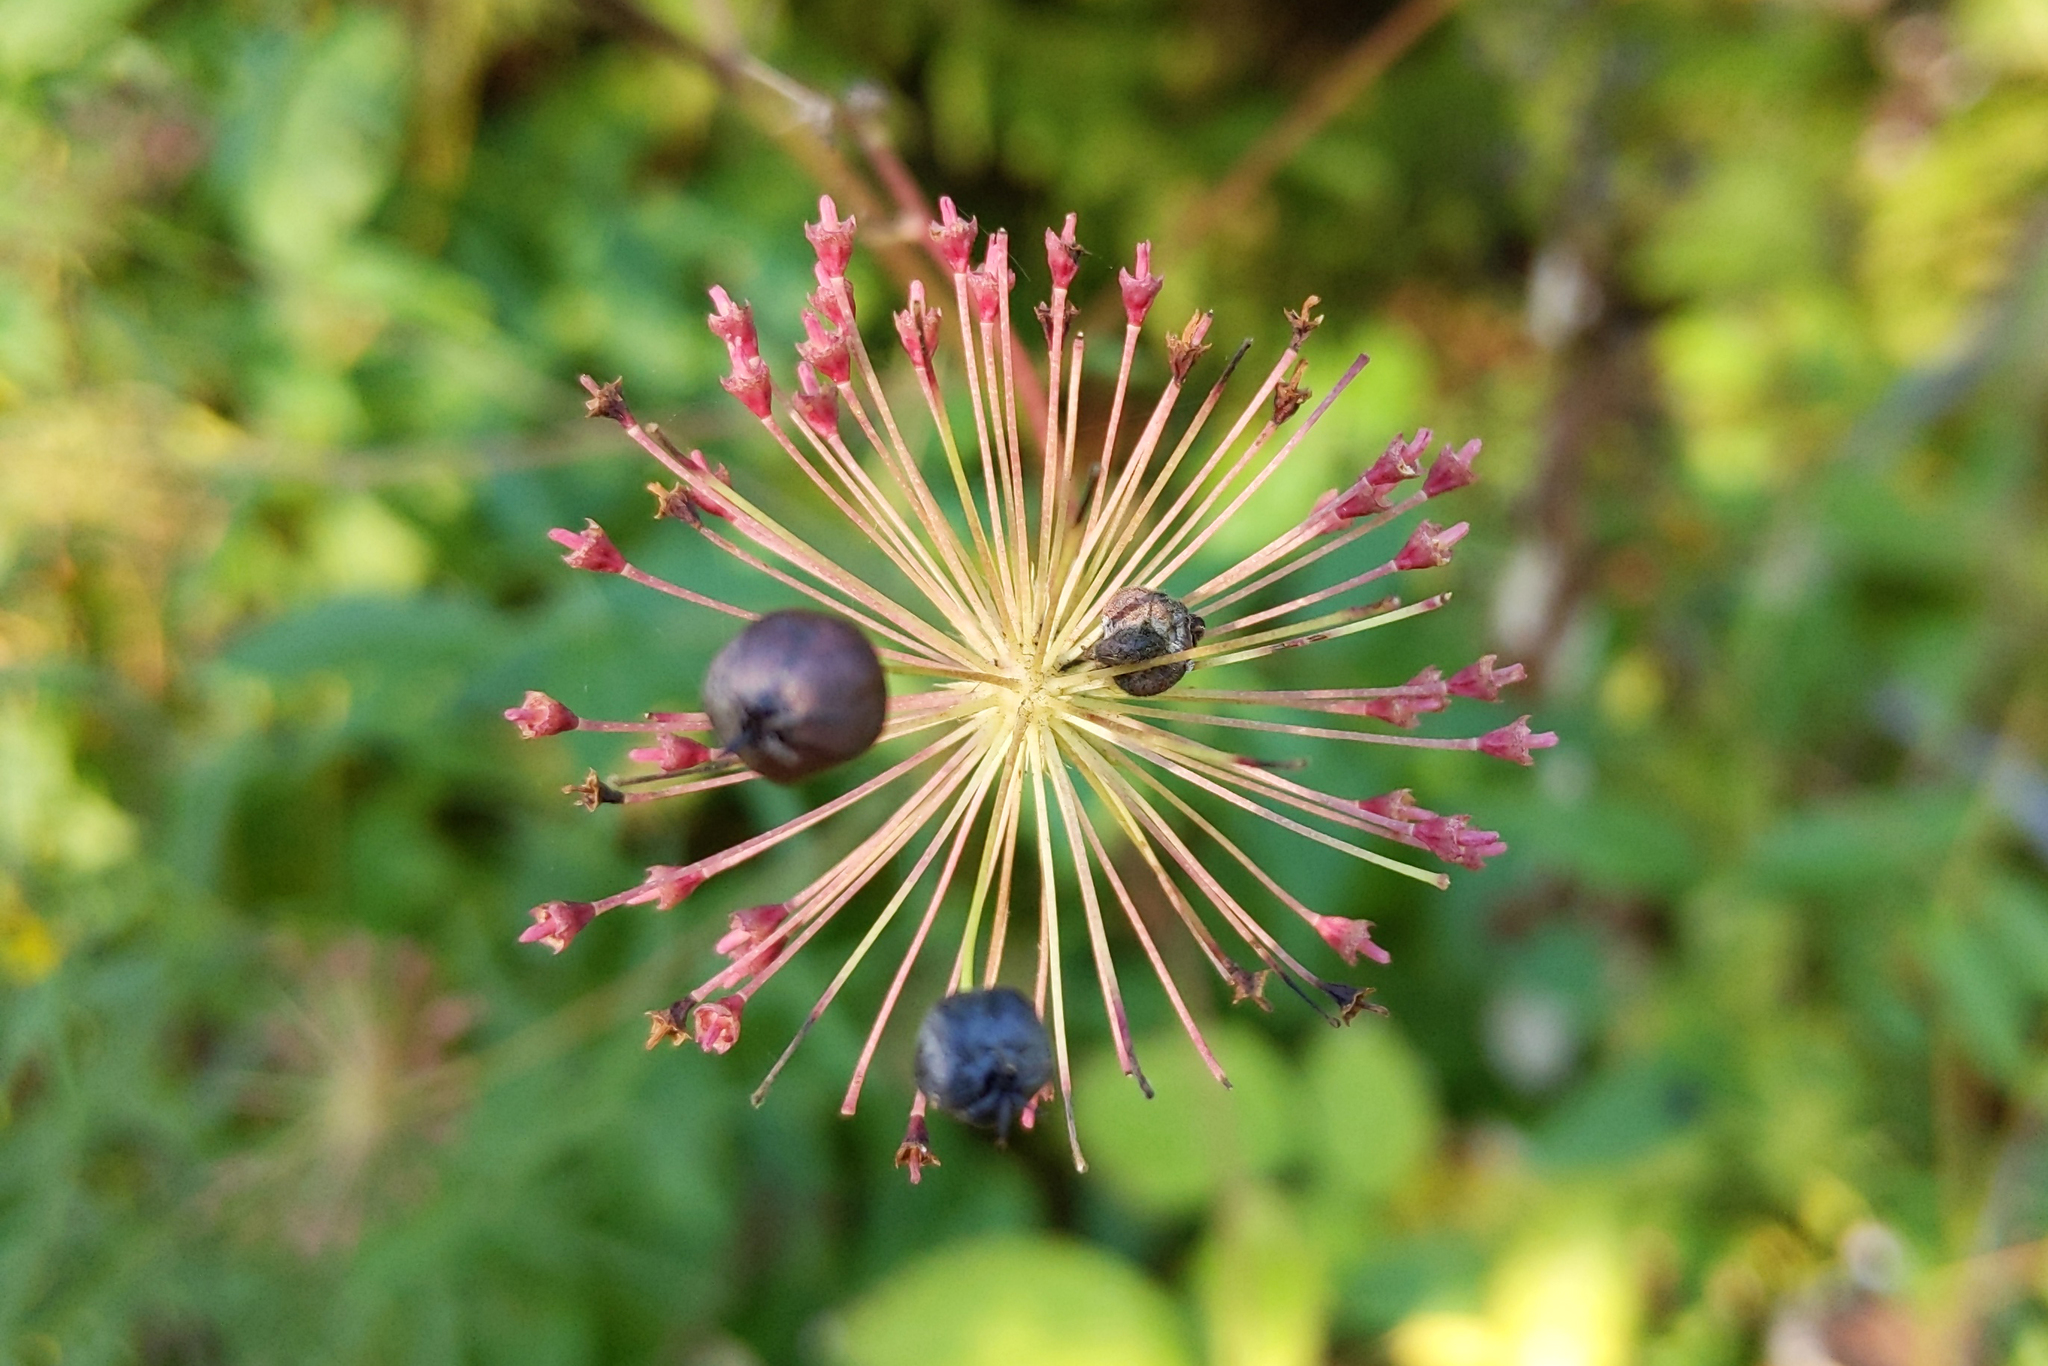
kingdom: Plantae
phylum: Tracheophyta
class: Magnoliopsida
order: Apiales
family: Araliaceae
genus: Aralia
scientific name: Aralia hispida
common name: Bristly sarsaparilla
